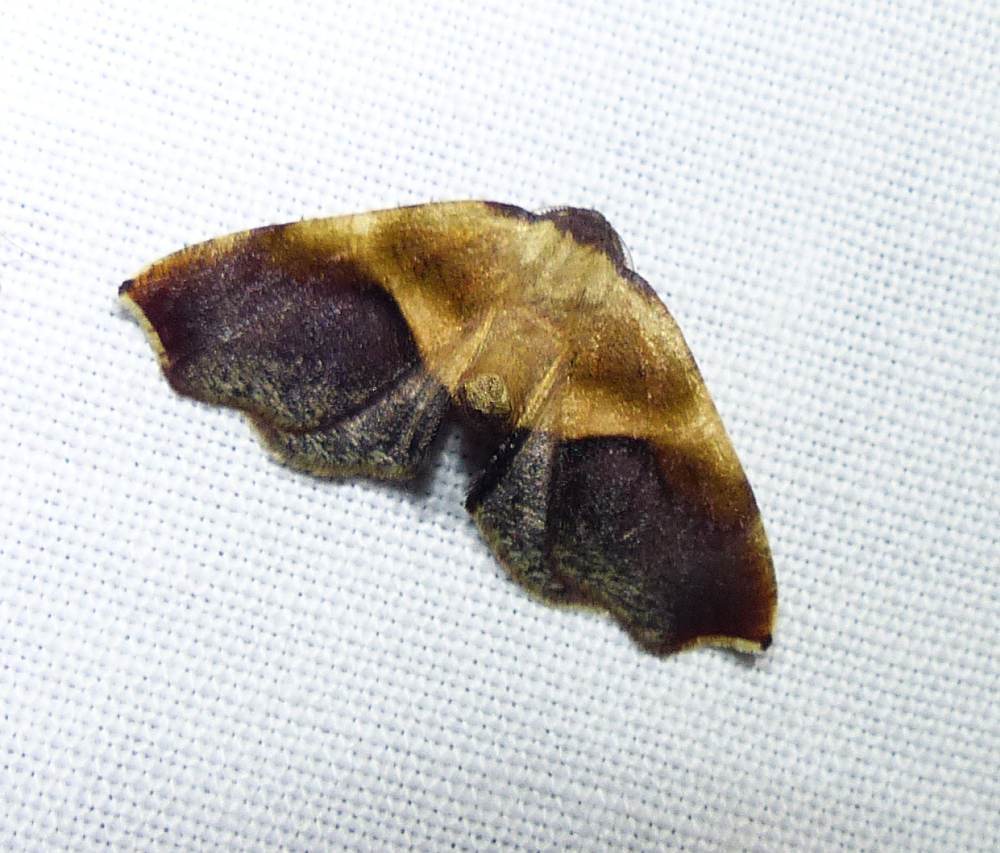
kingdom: Animalia
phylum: Arthropoda
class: Insecta
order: Lepidoptera
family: Geometridae
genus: Plagodis
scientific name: Plagodis kuetzingi
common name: Purple plagodis
